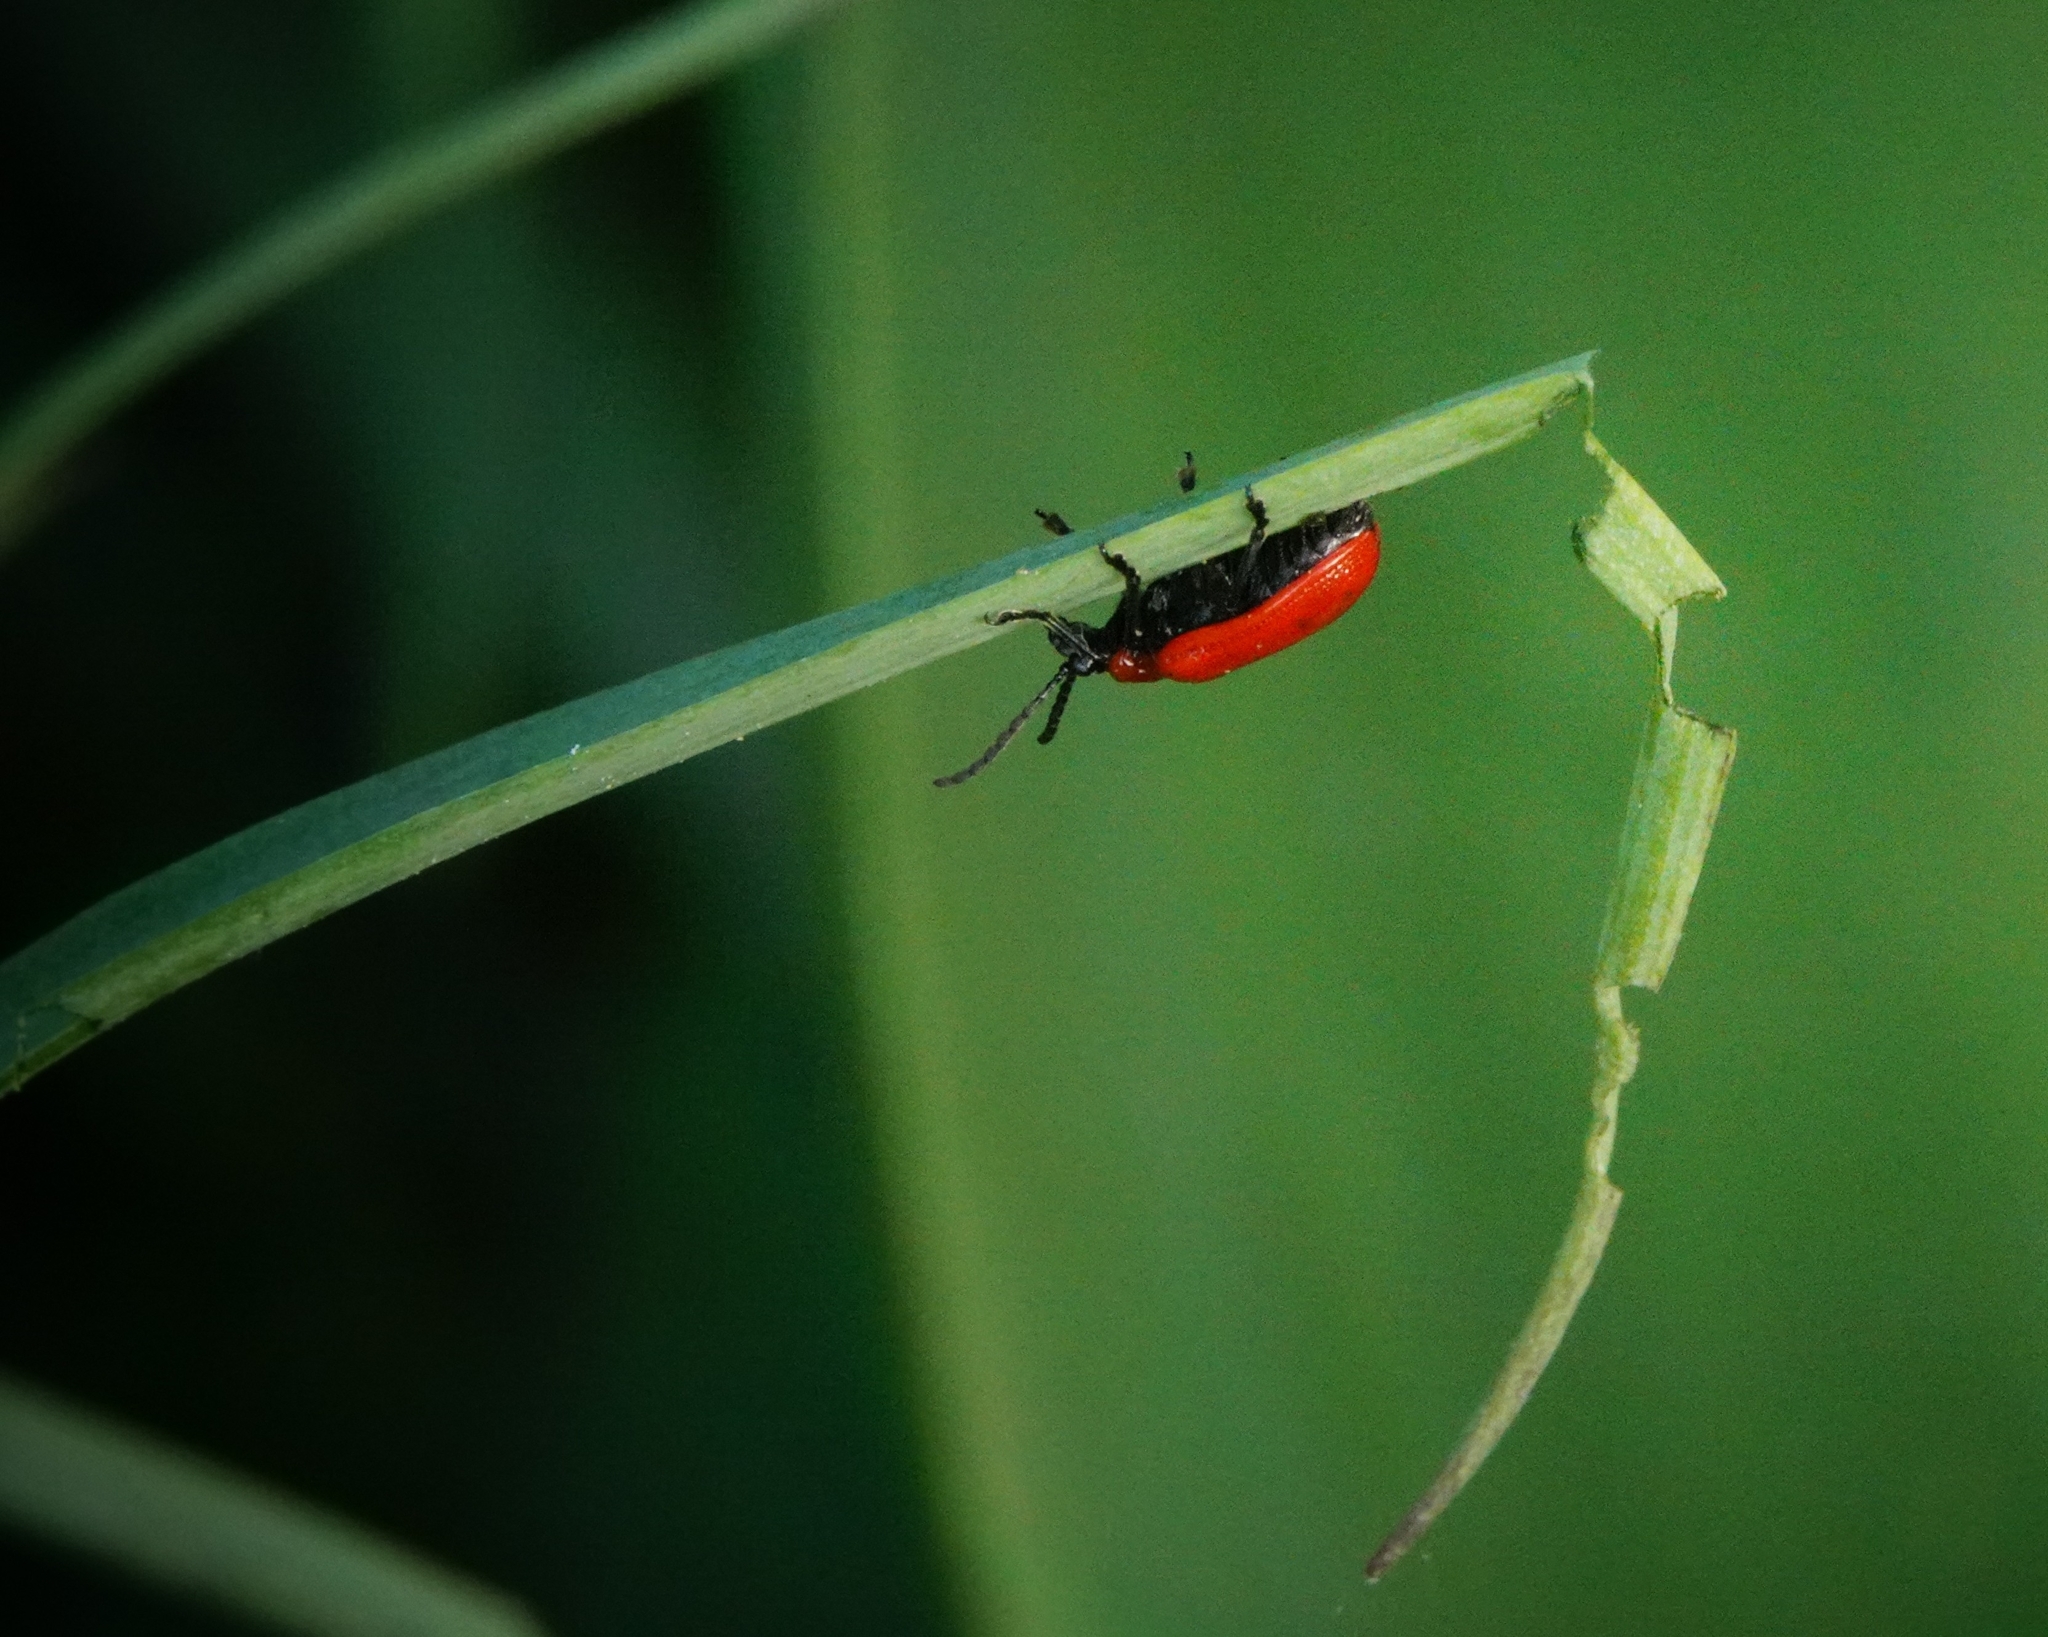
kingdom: Animalia
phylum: Arthropoda
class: Insecta
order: Coleoptera
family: Chrysomelidae
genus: Lilioceris
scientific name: Lilioceris lilii
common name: Lily beetle
